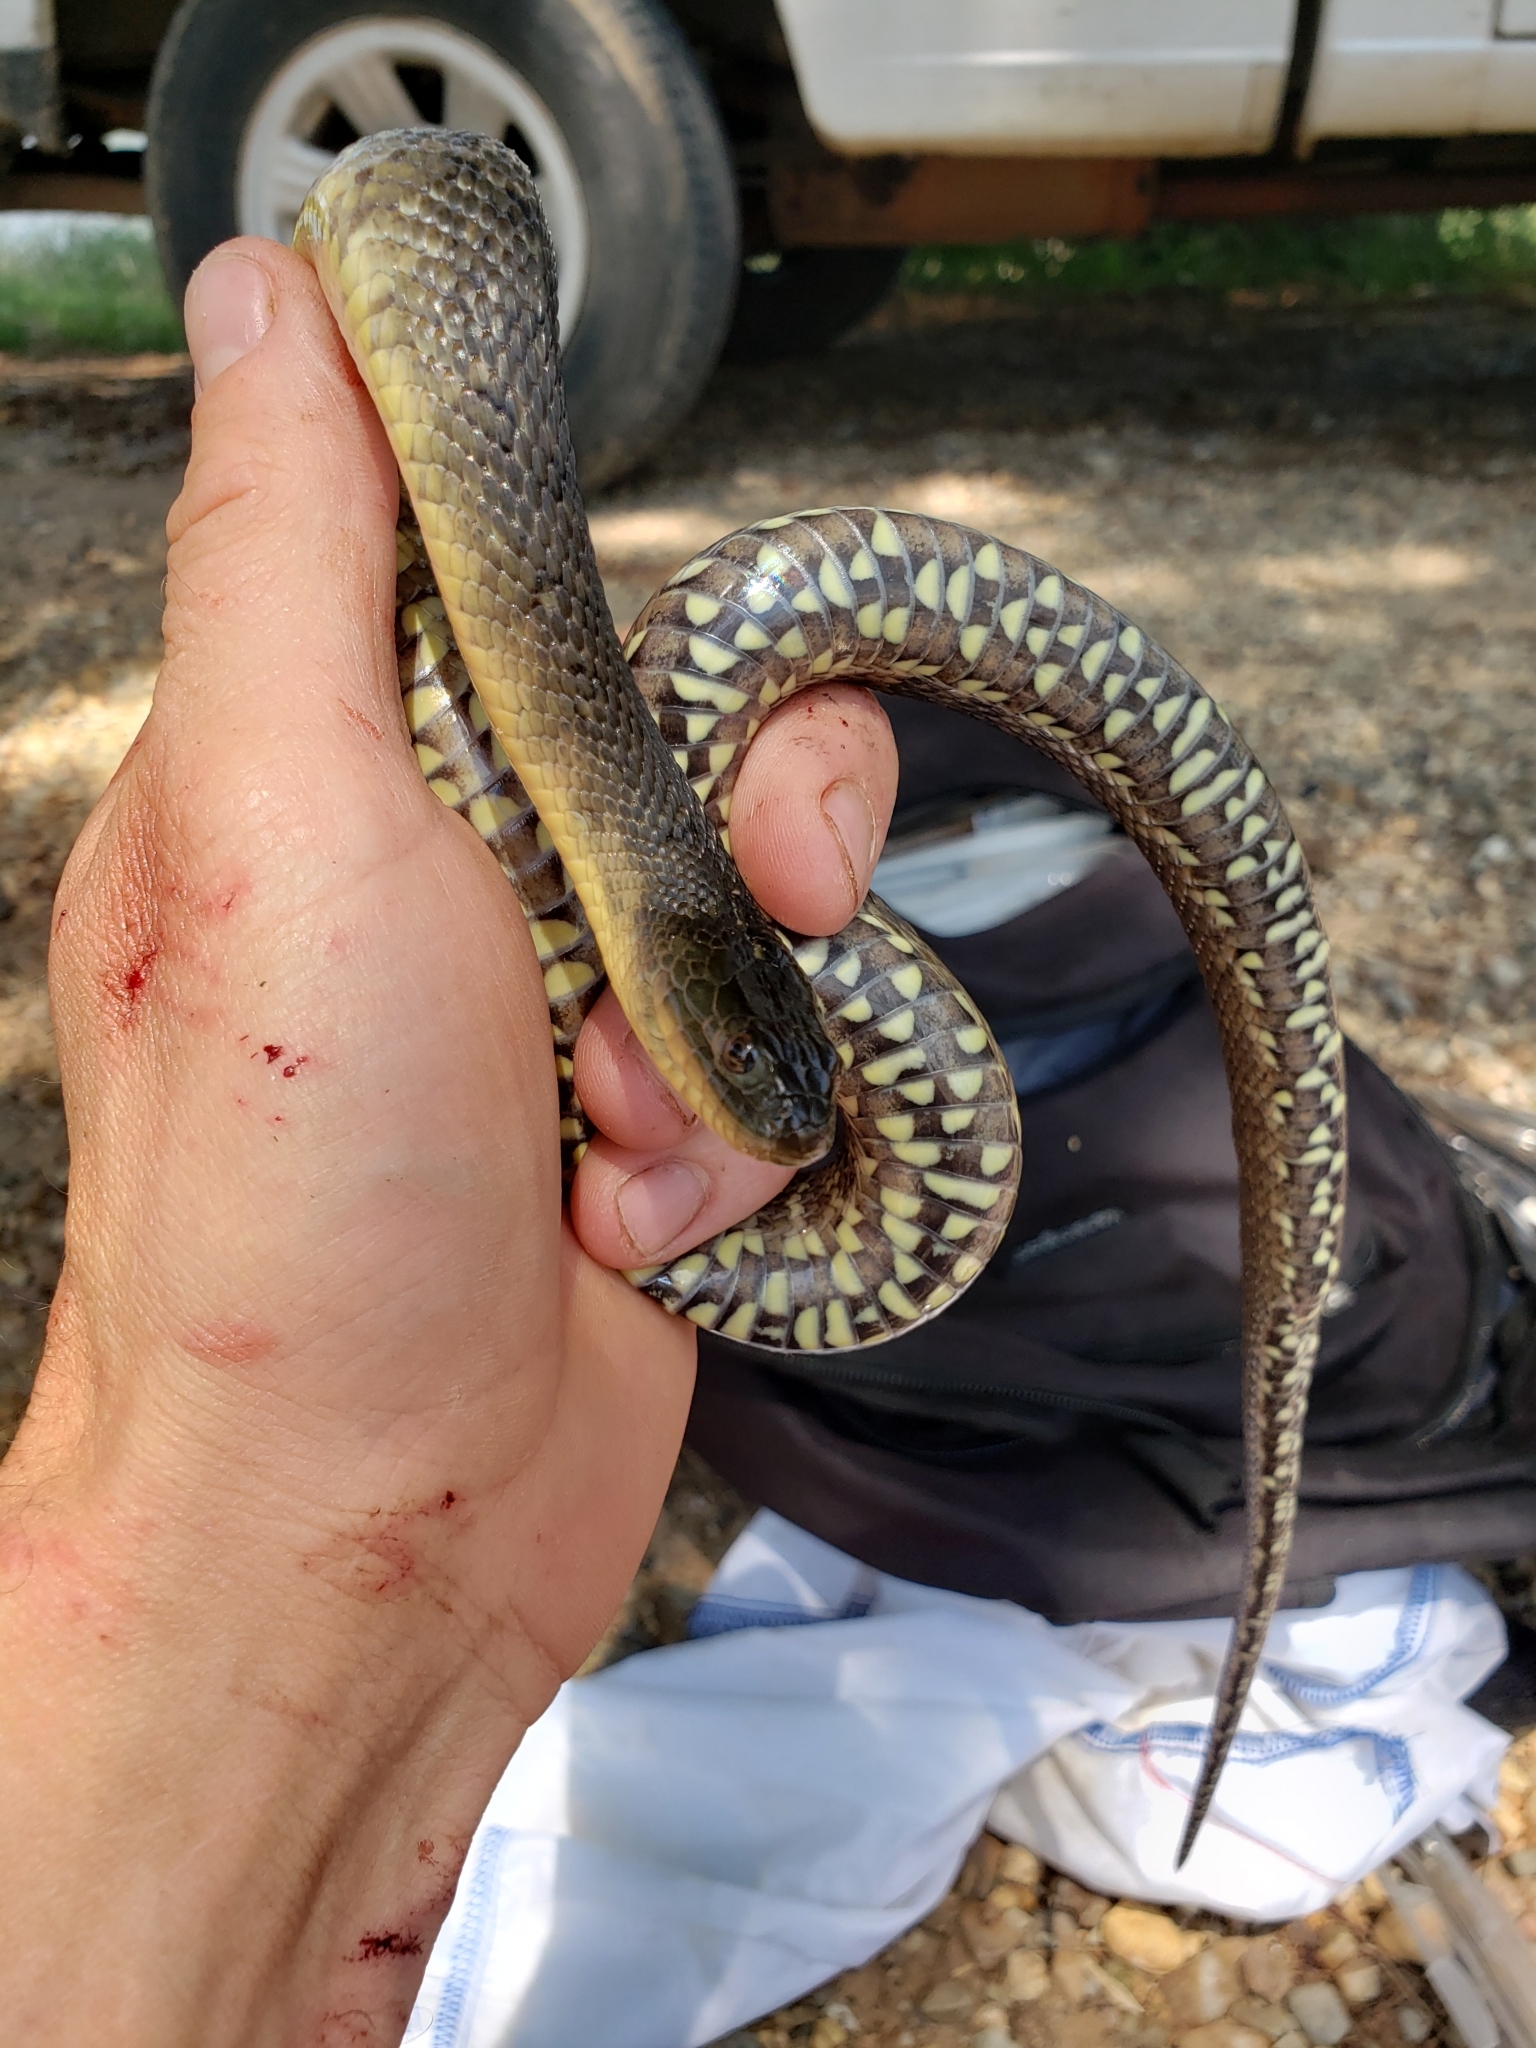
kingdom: Animalia
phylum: Chordata
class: Squamata
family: Colubridae
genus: Nerodia
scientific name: Nerodia cyclopion
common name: Mississippi green water snake
